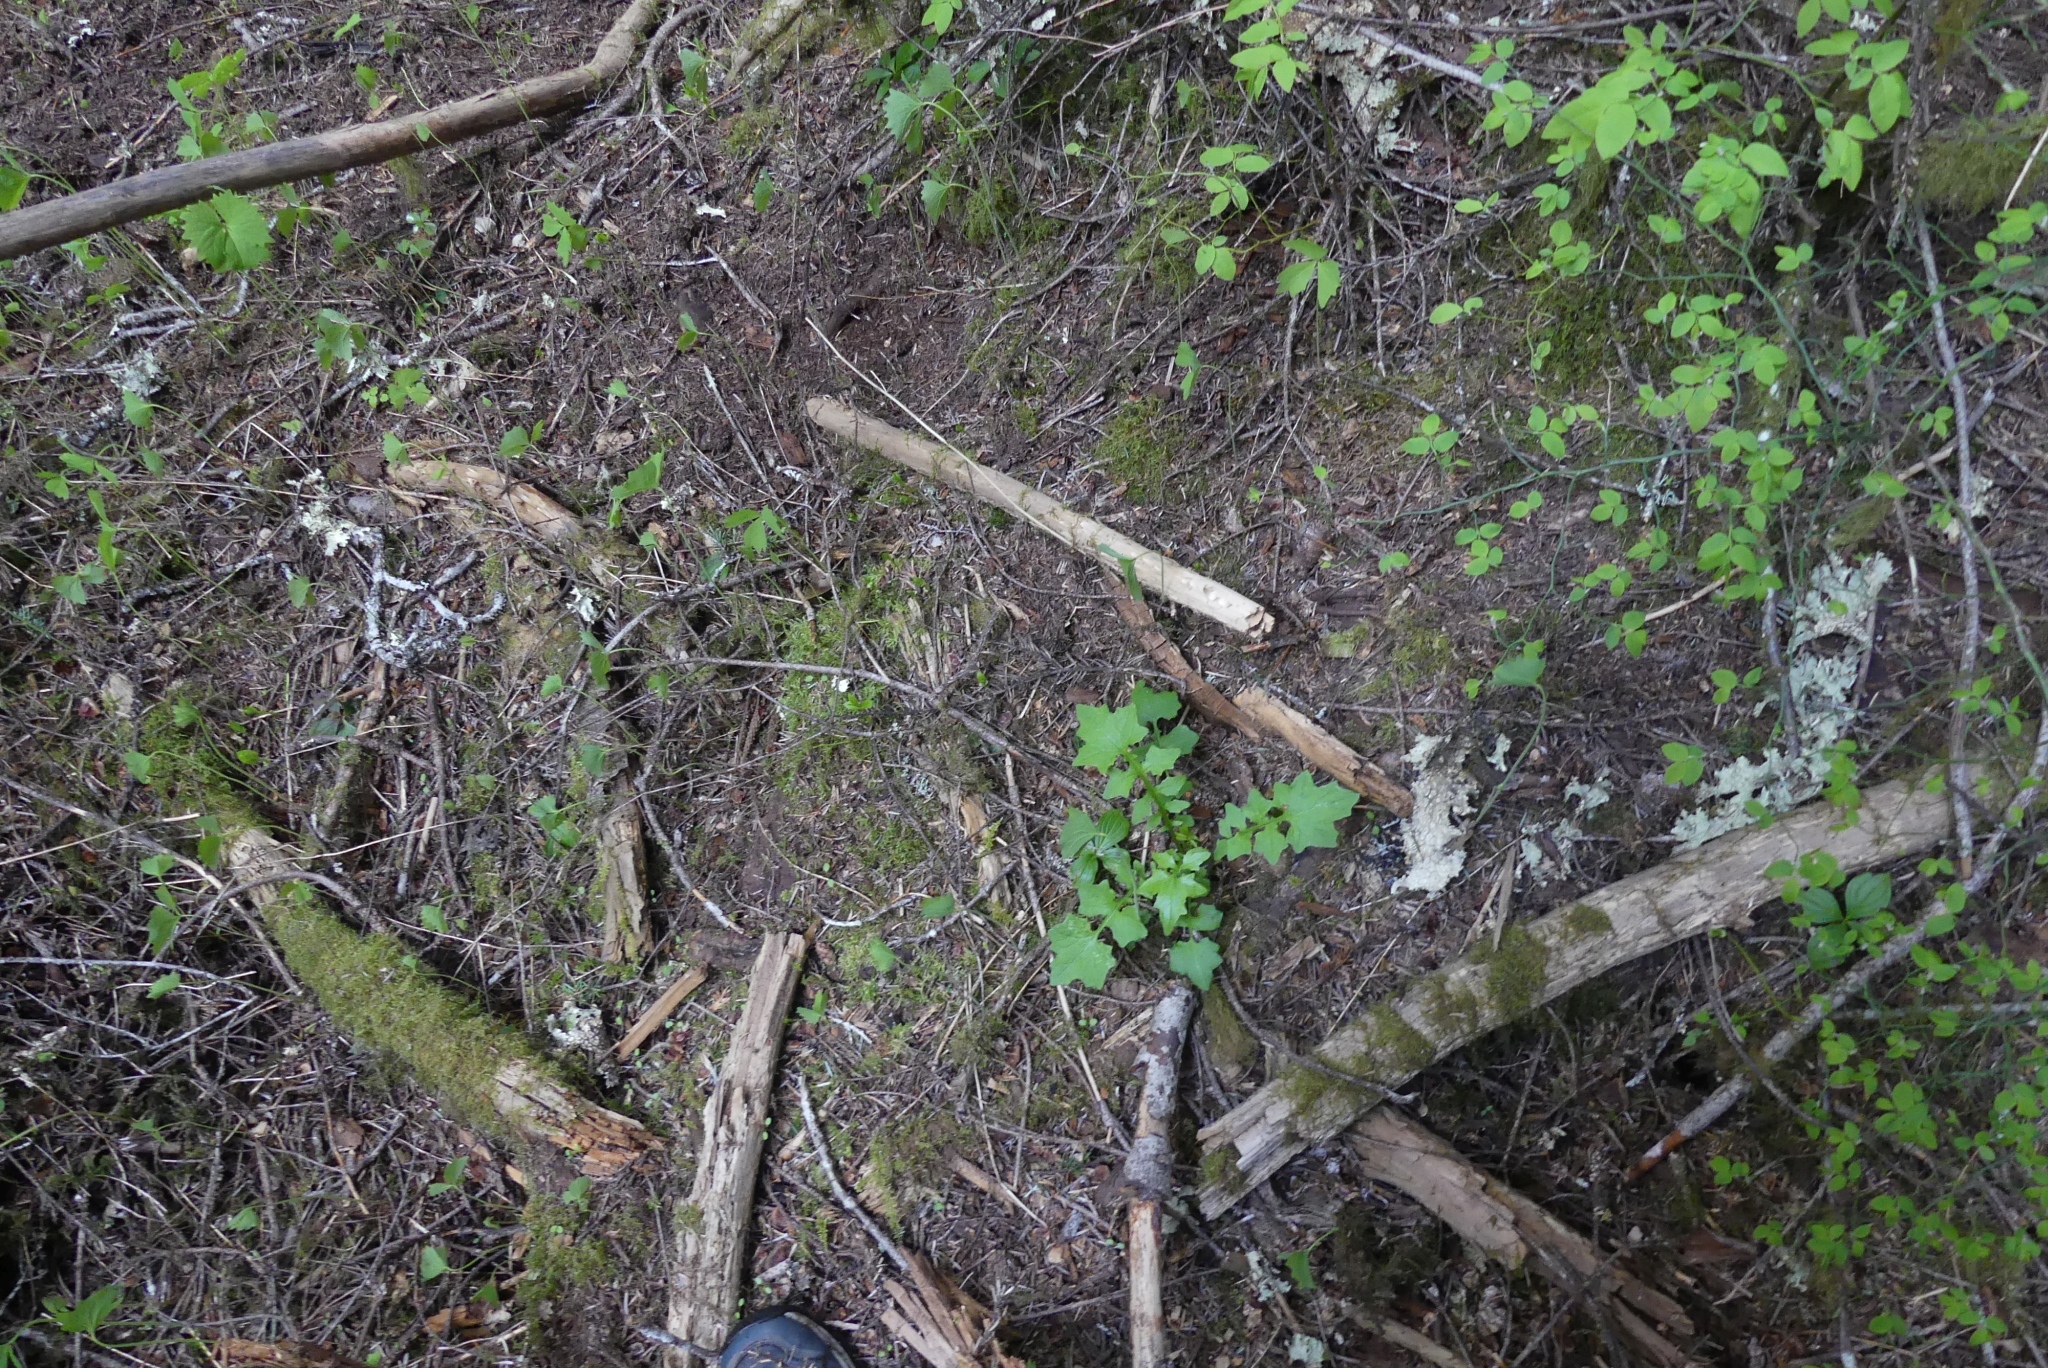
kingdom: Plantae
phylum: Tracheophyta
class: Magnoliopsida
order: Asterales
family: Asteraceae
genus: Mycelis
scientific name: Mycelis muralis
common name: Wall lettuce
